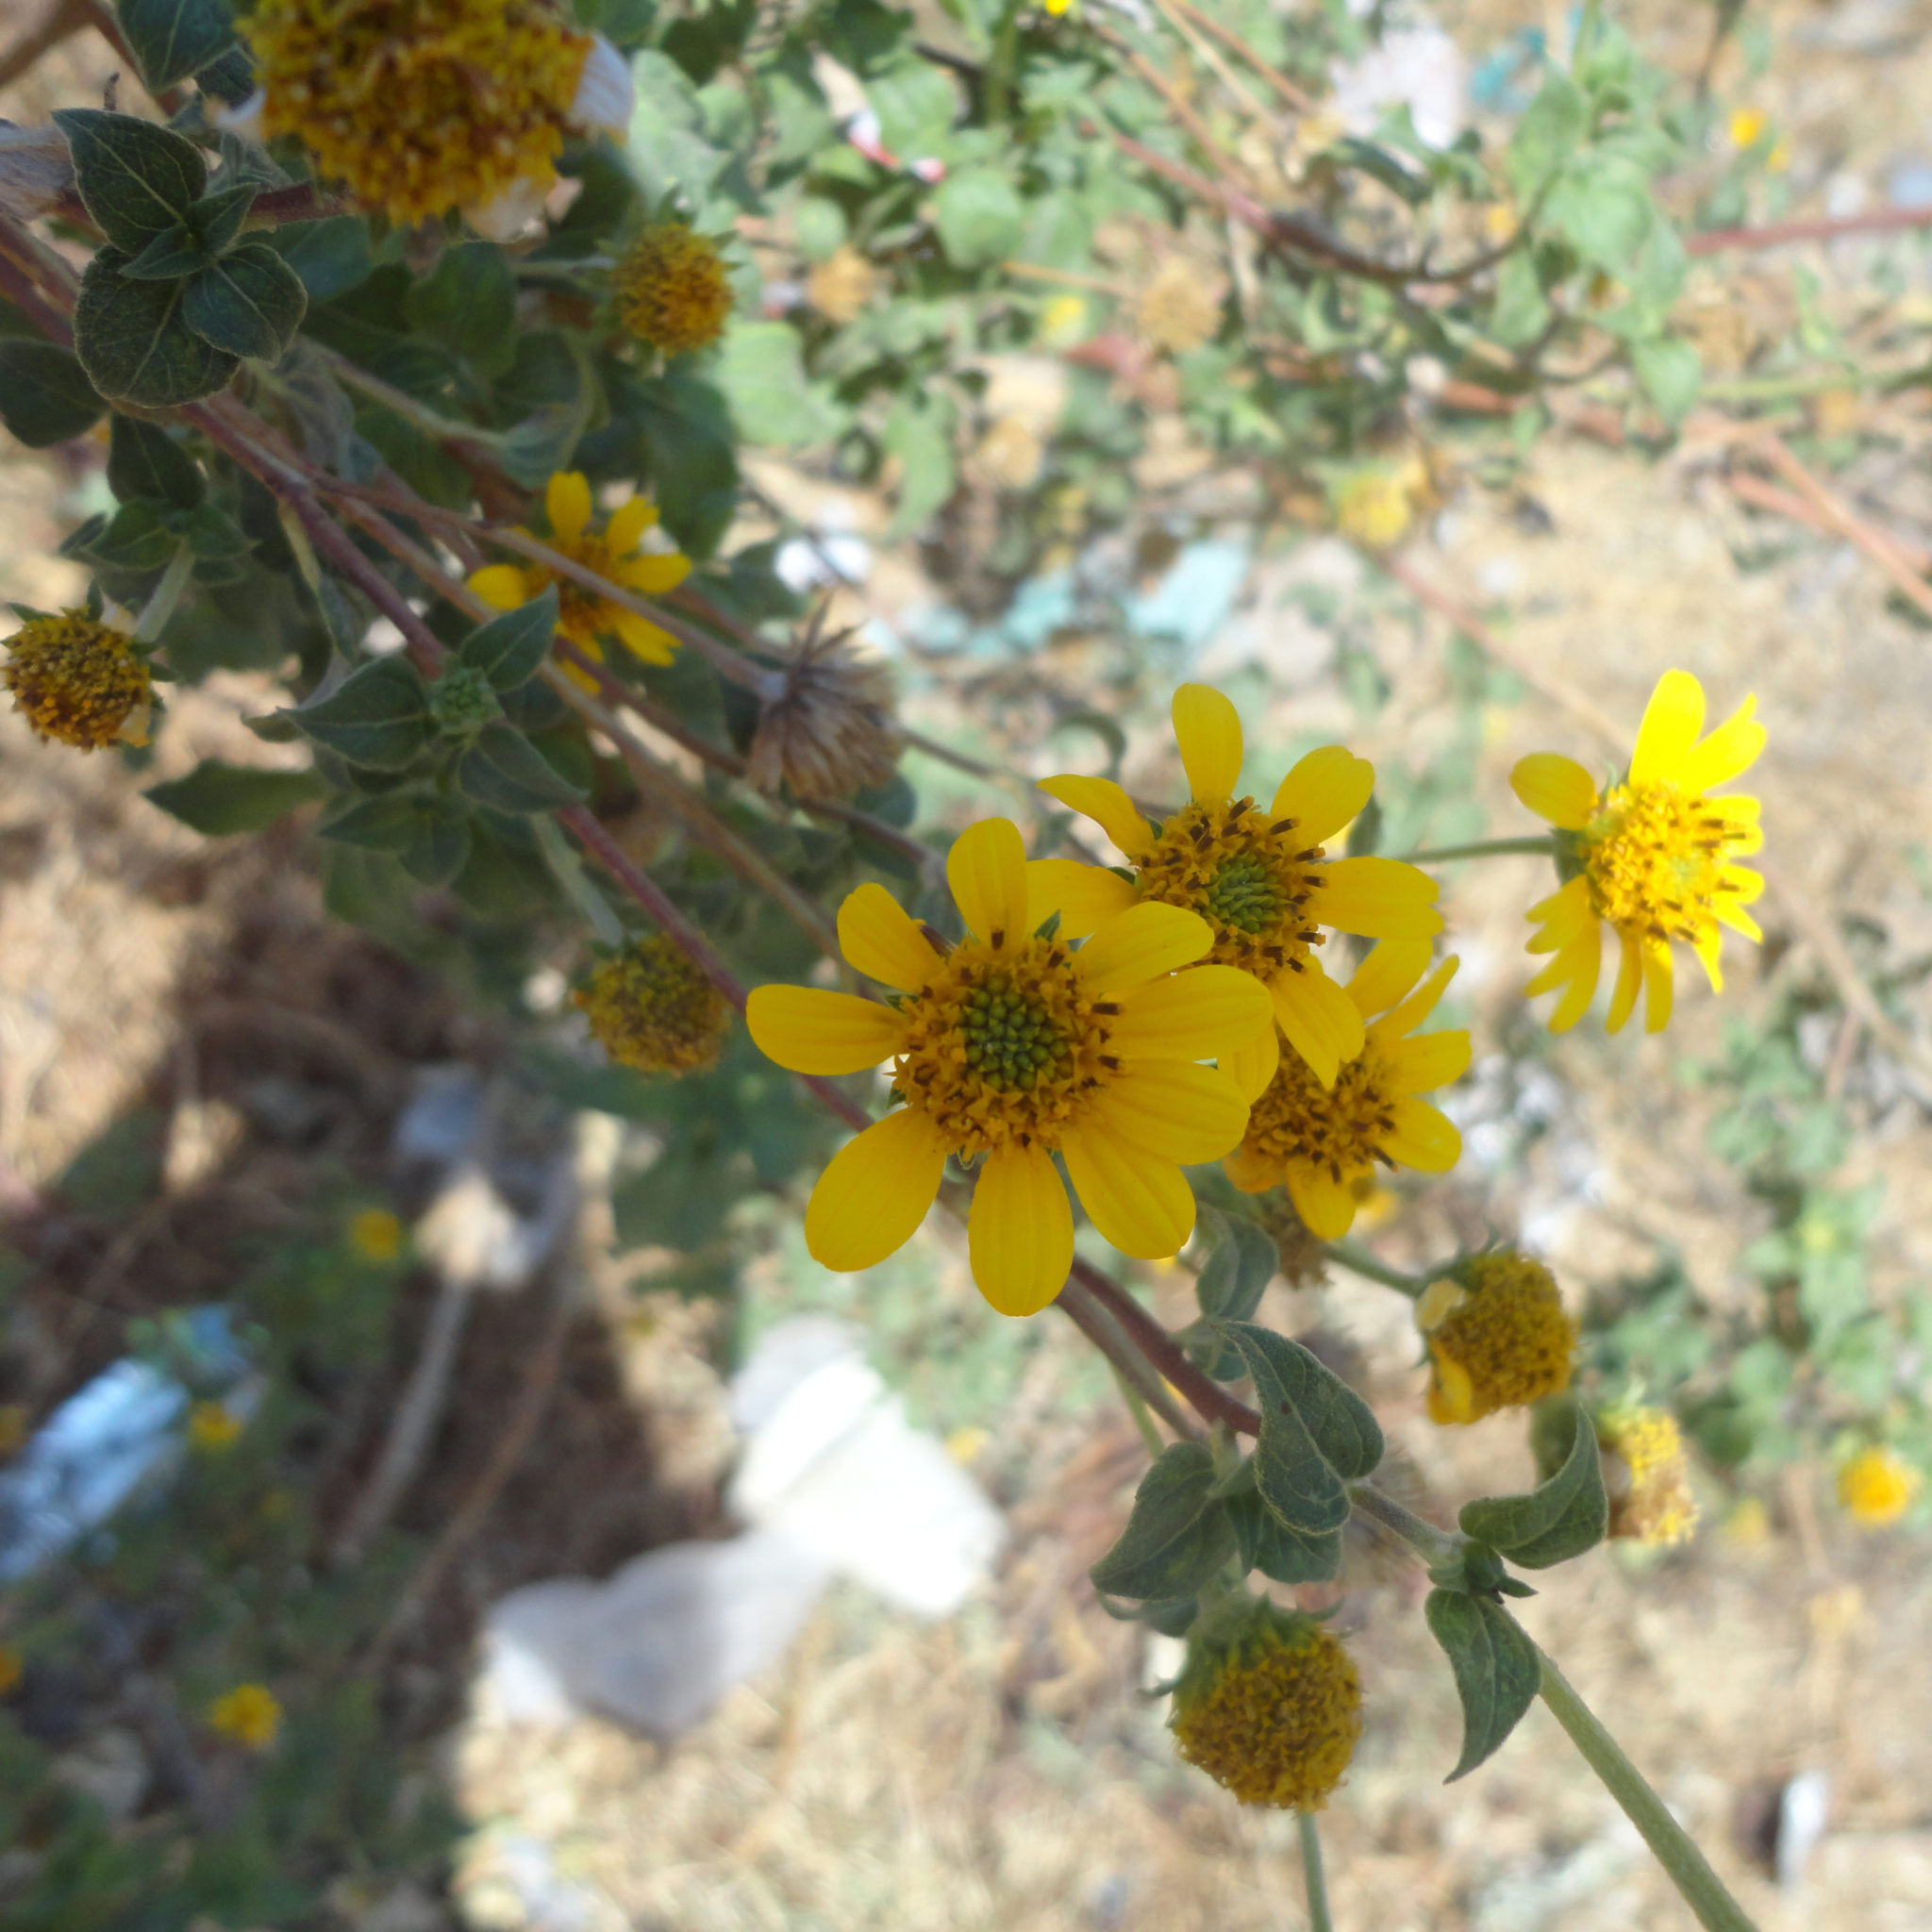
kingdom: Plantae
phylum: Tracheophyta
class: Magnoliopsida
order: Asterales
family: Asteraceae
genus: Viguiera
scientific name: Viguiera dentata
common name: Toothleaf
